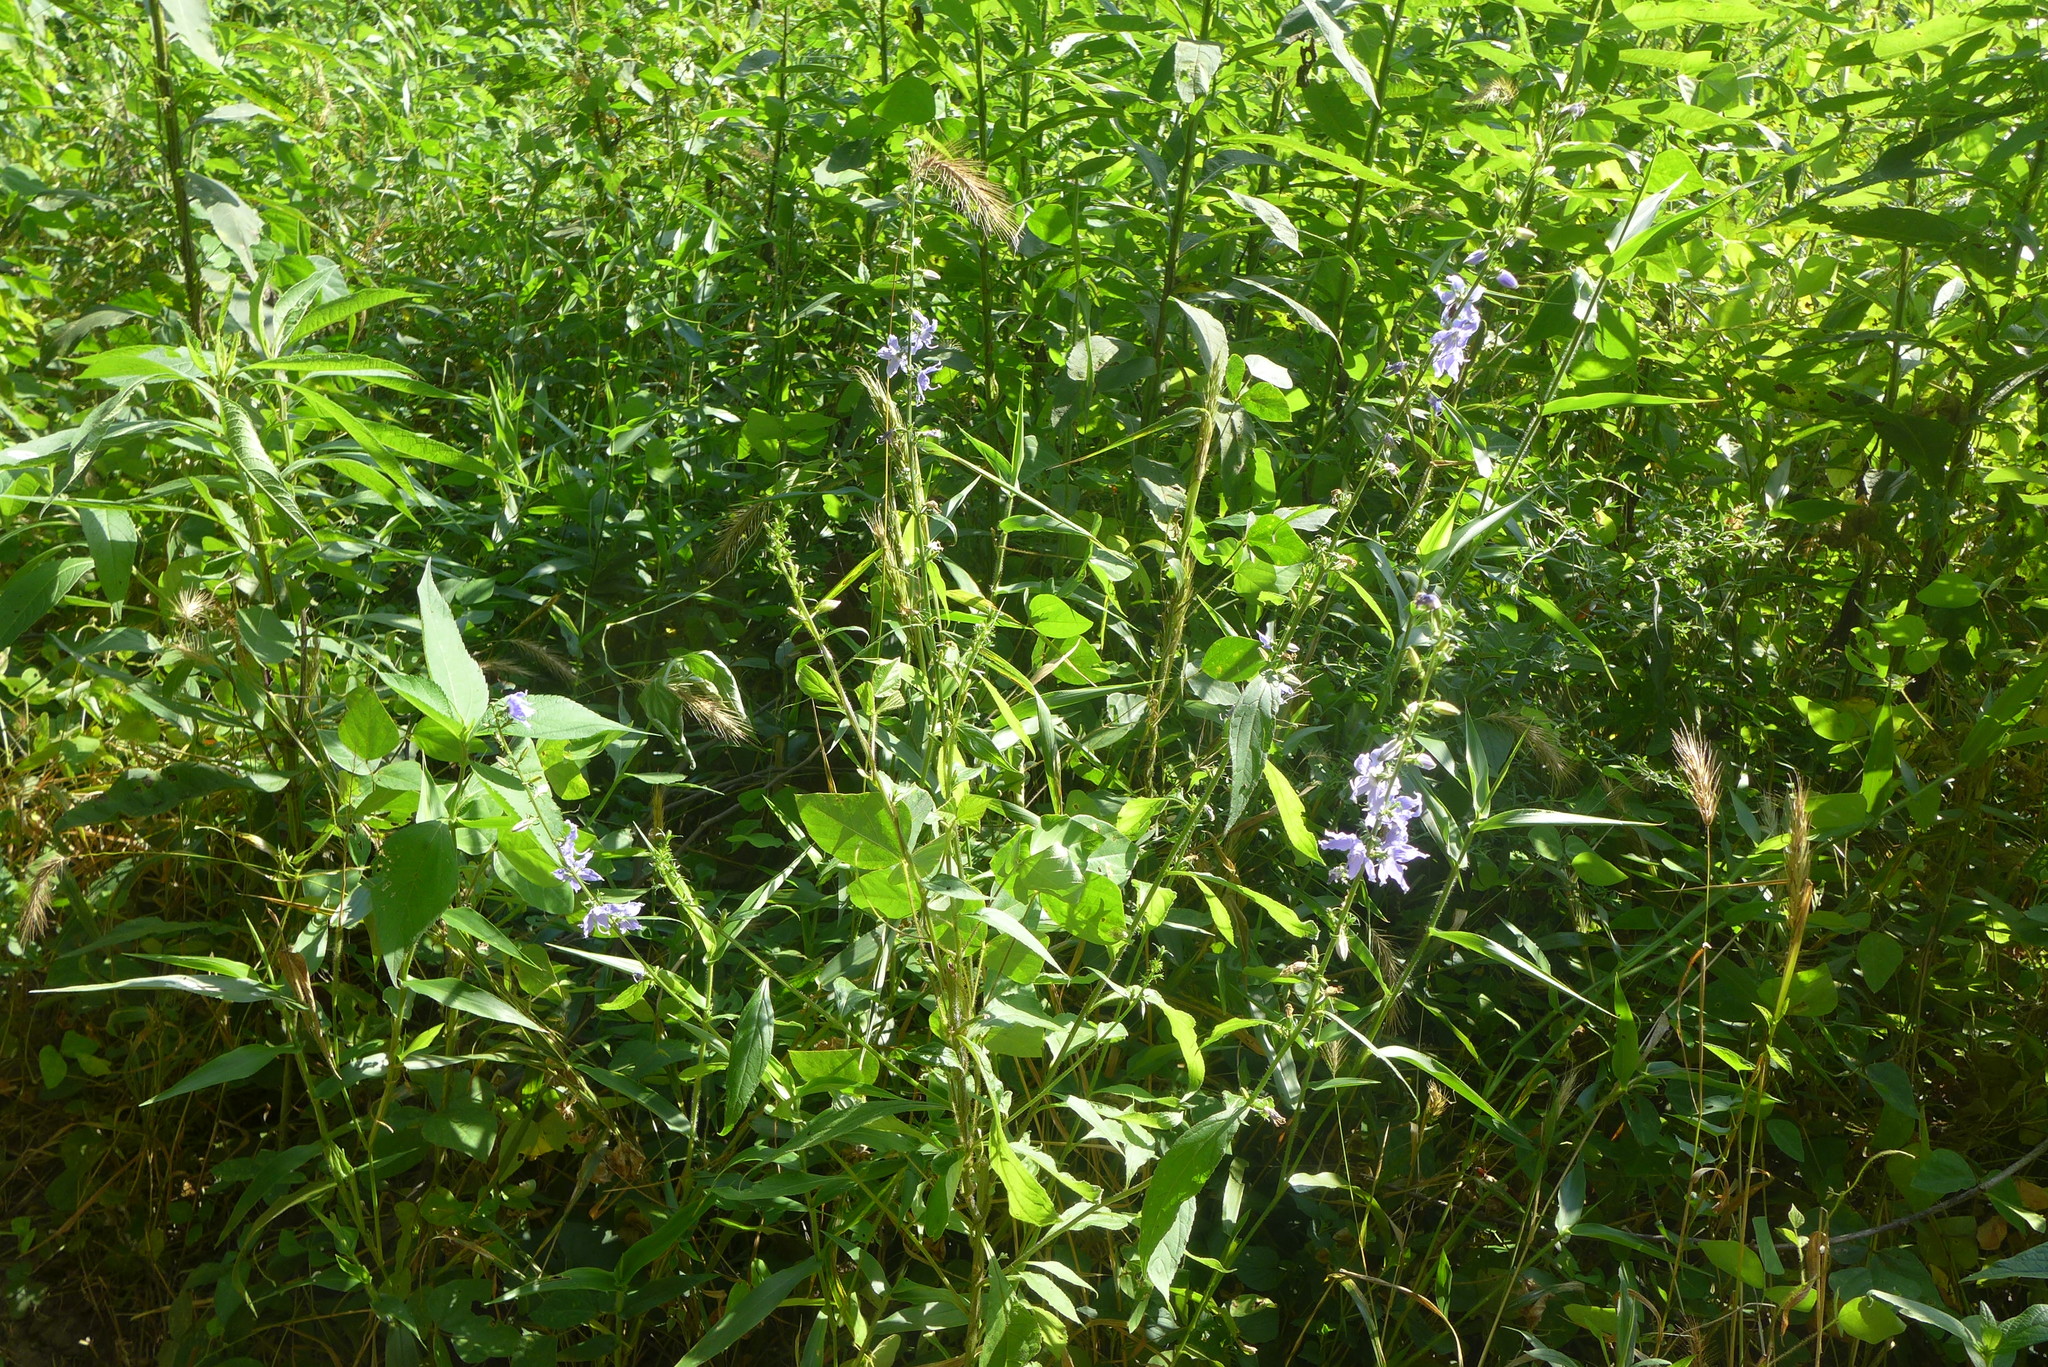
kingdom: Plantae
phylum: Tracheophyta
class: Magnoliopsida
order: Asterales
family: Campanulaceae
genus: Campanulastrum
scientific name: Campanulastrum americanum
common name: American bellflower
